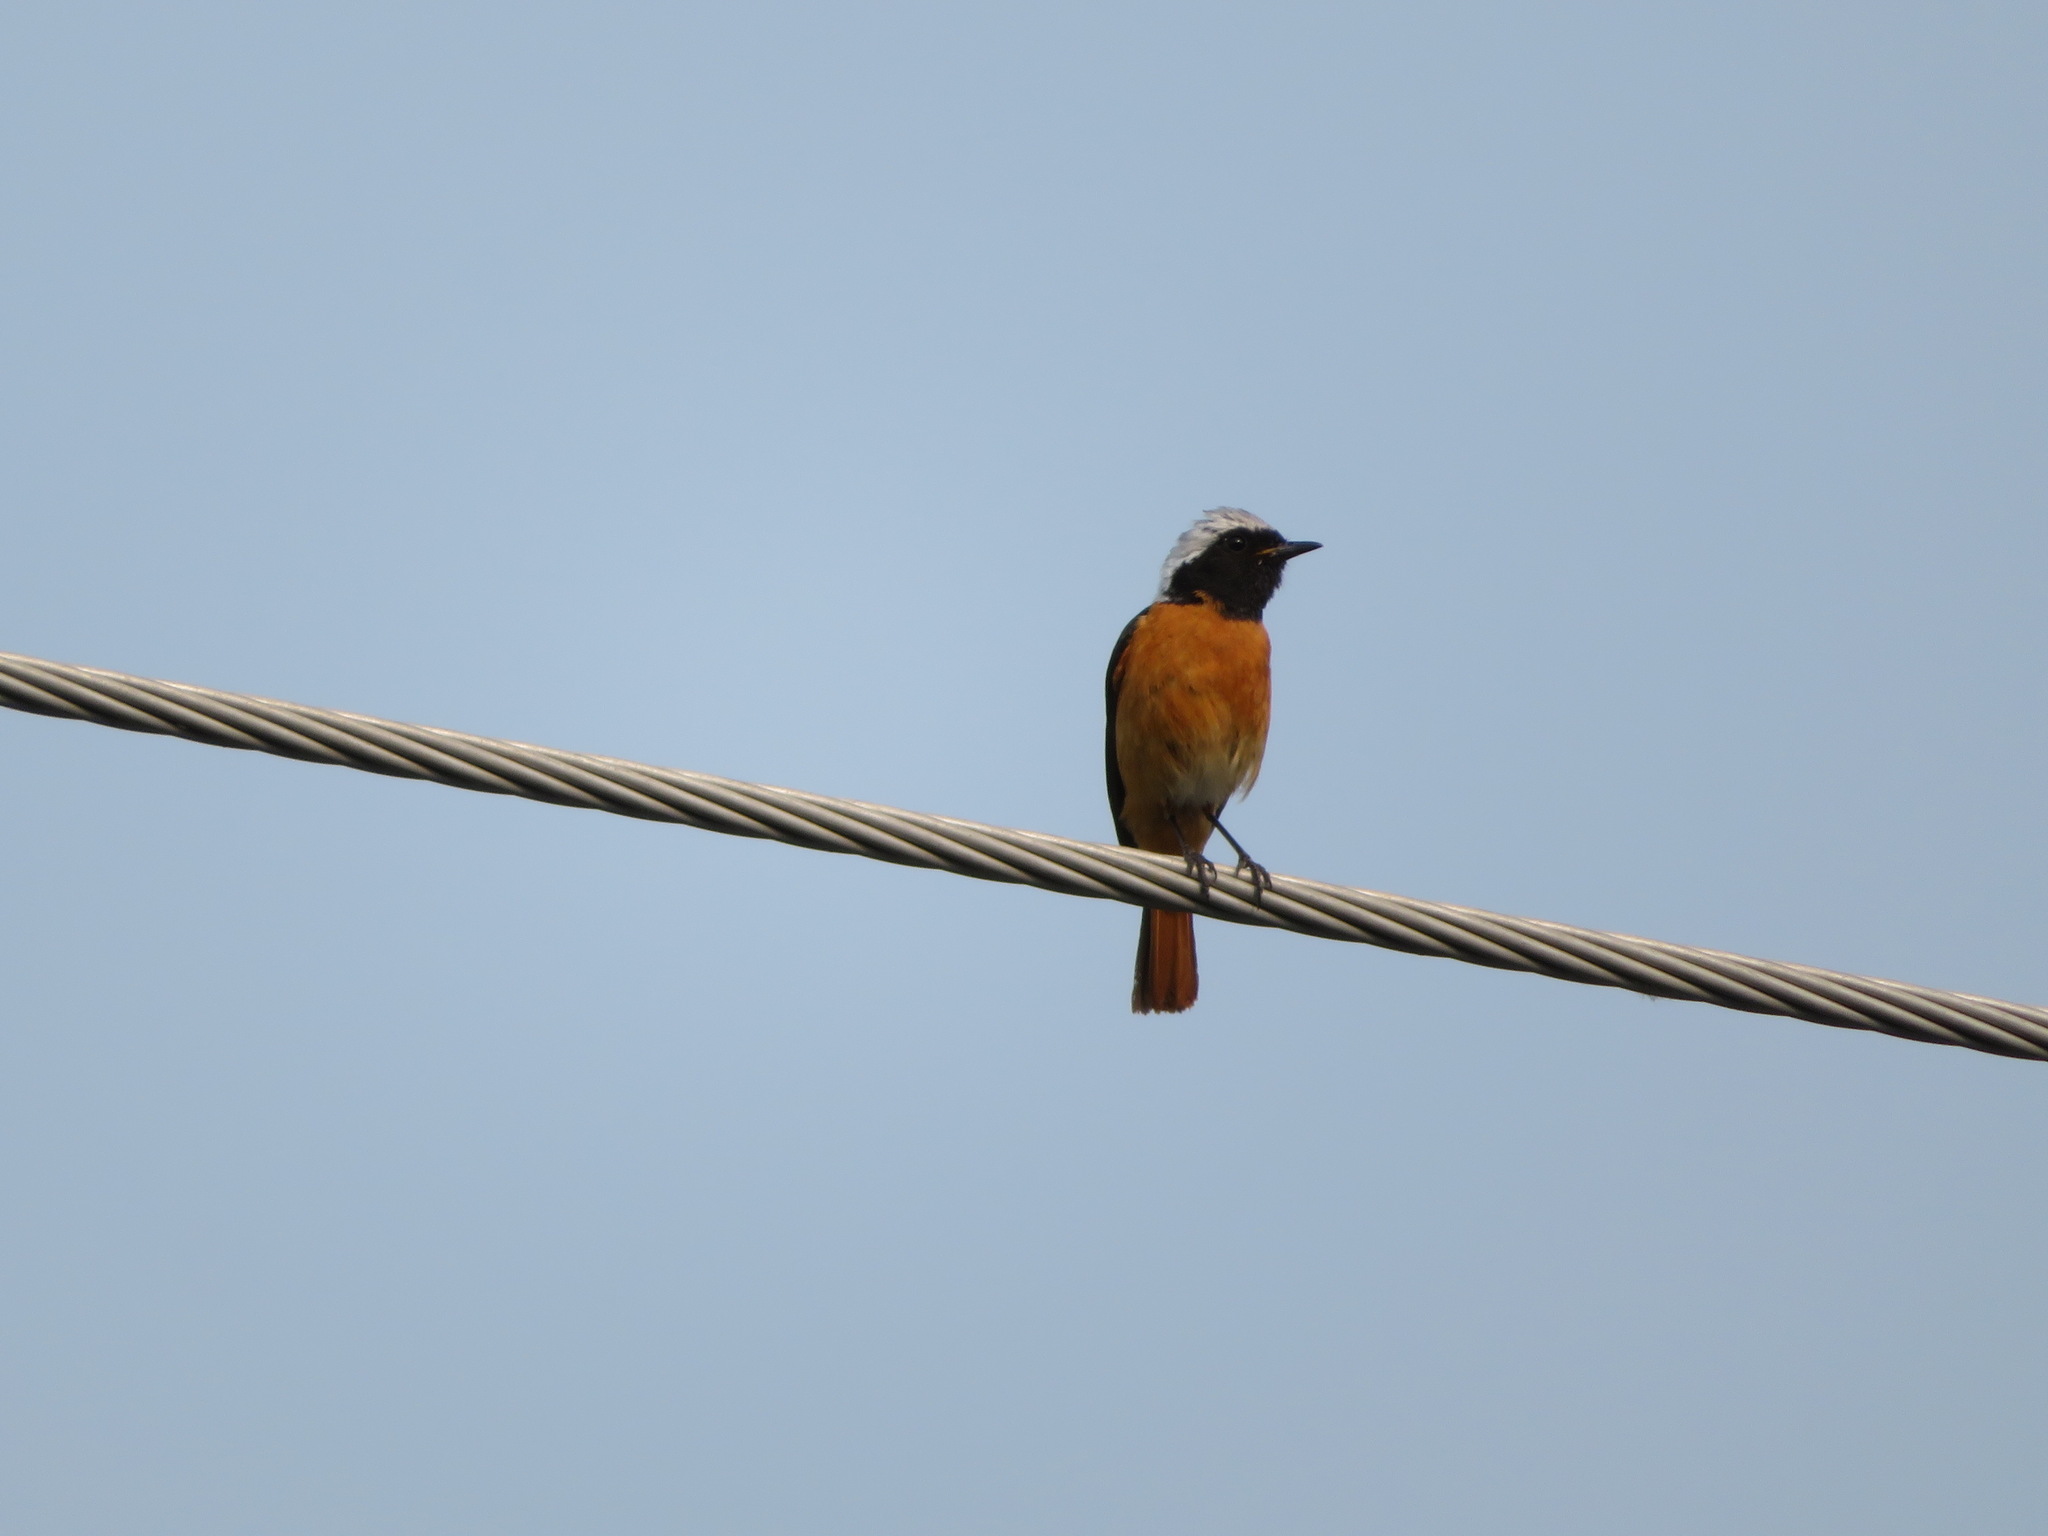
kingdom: Animalia
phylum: Chordata
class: Aves
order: Passeriformes
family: Muscicapidae
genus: Phoenicurus
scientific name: Phoenicurus auroreus
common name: Daurian redstart
